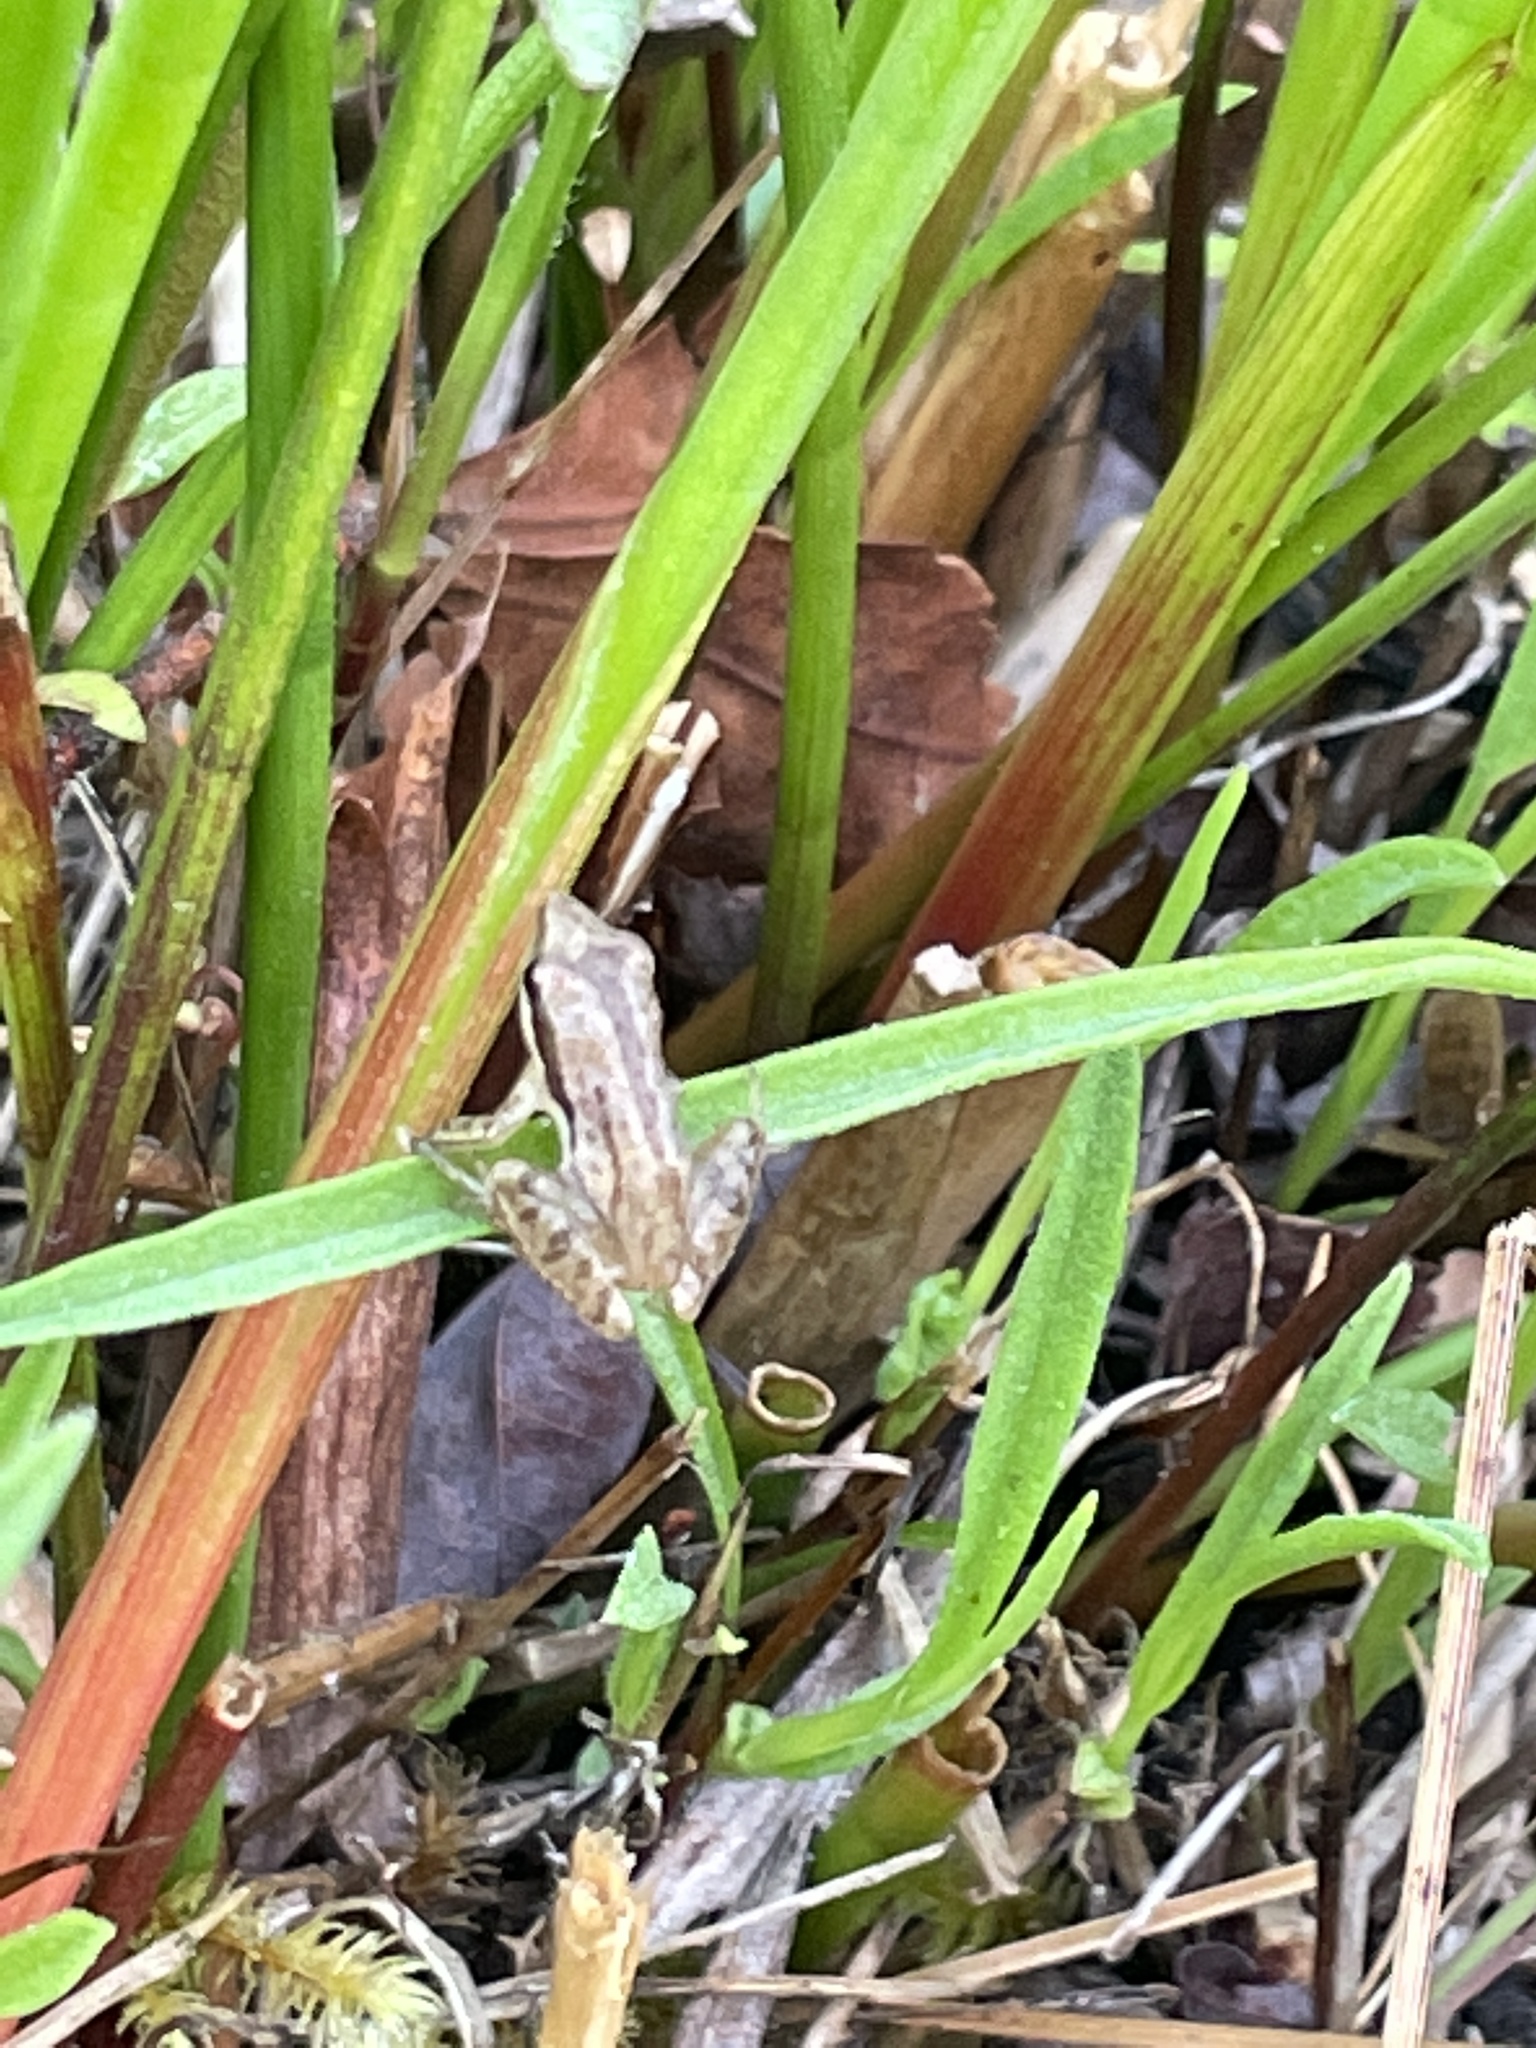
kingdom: Animalia
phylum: Chordata
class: Amphibia
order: Anura
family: Hylidae
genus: Pseudacris
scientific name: Pseudacris ocularis
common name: Little grass frog
